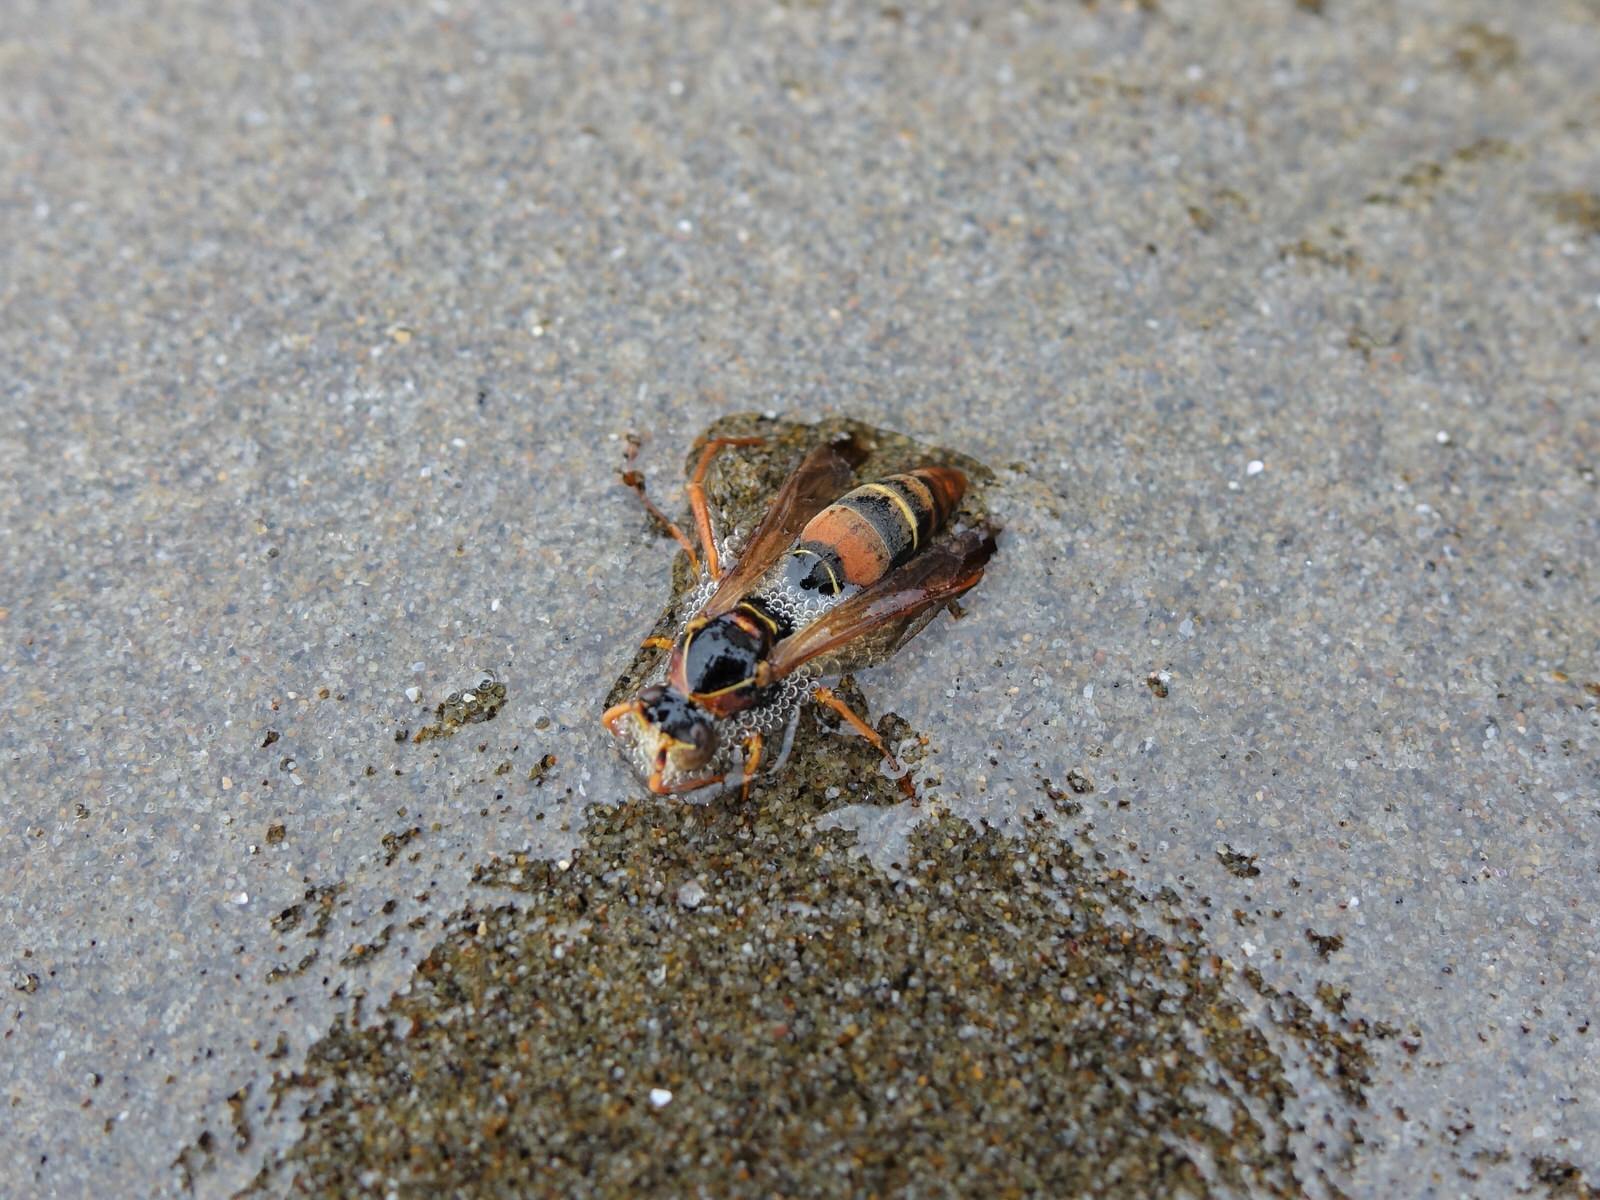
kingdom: Animalia
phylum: Arthropoda
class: Insecta
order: Hymenoptera
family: Eumenidae
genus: Polistes
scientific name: Polistes humilis
